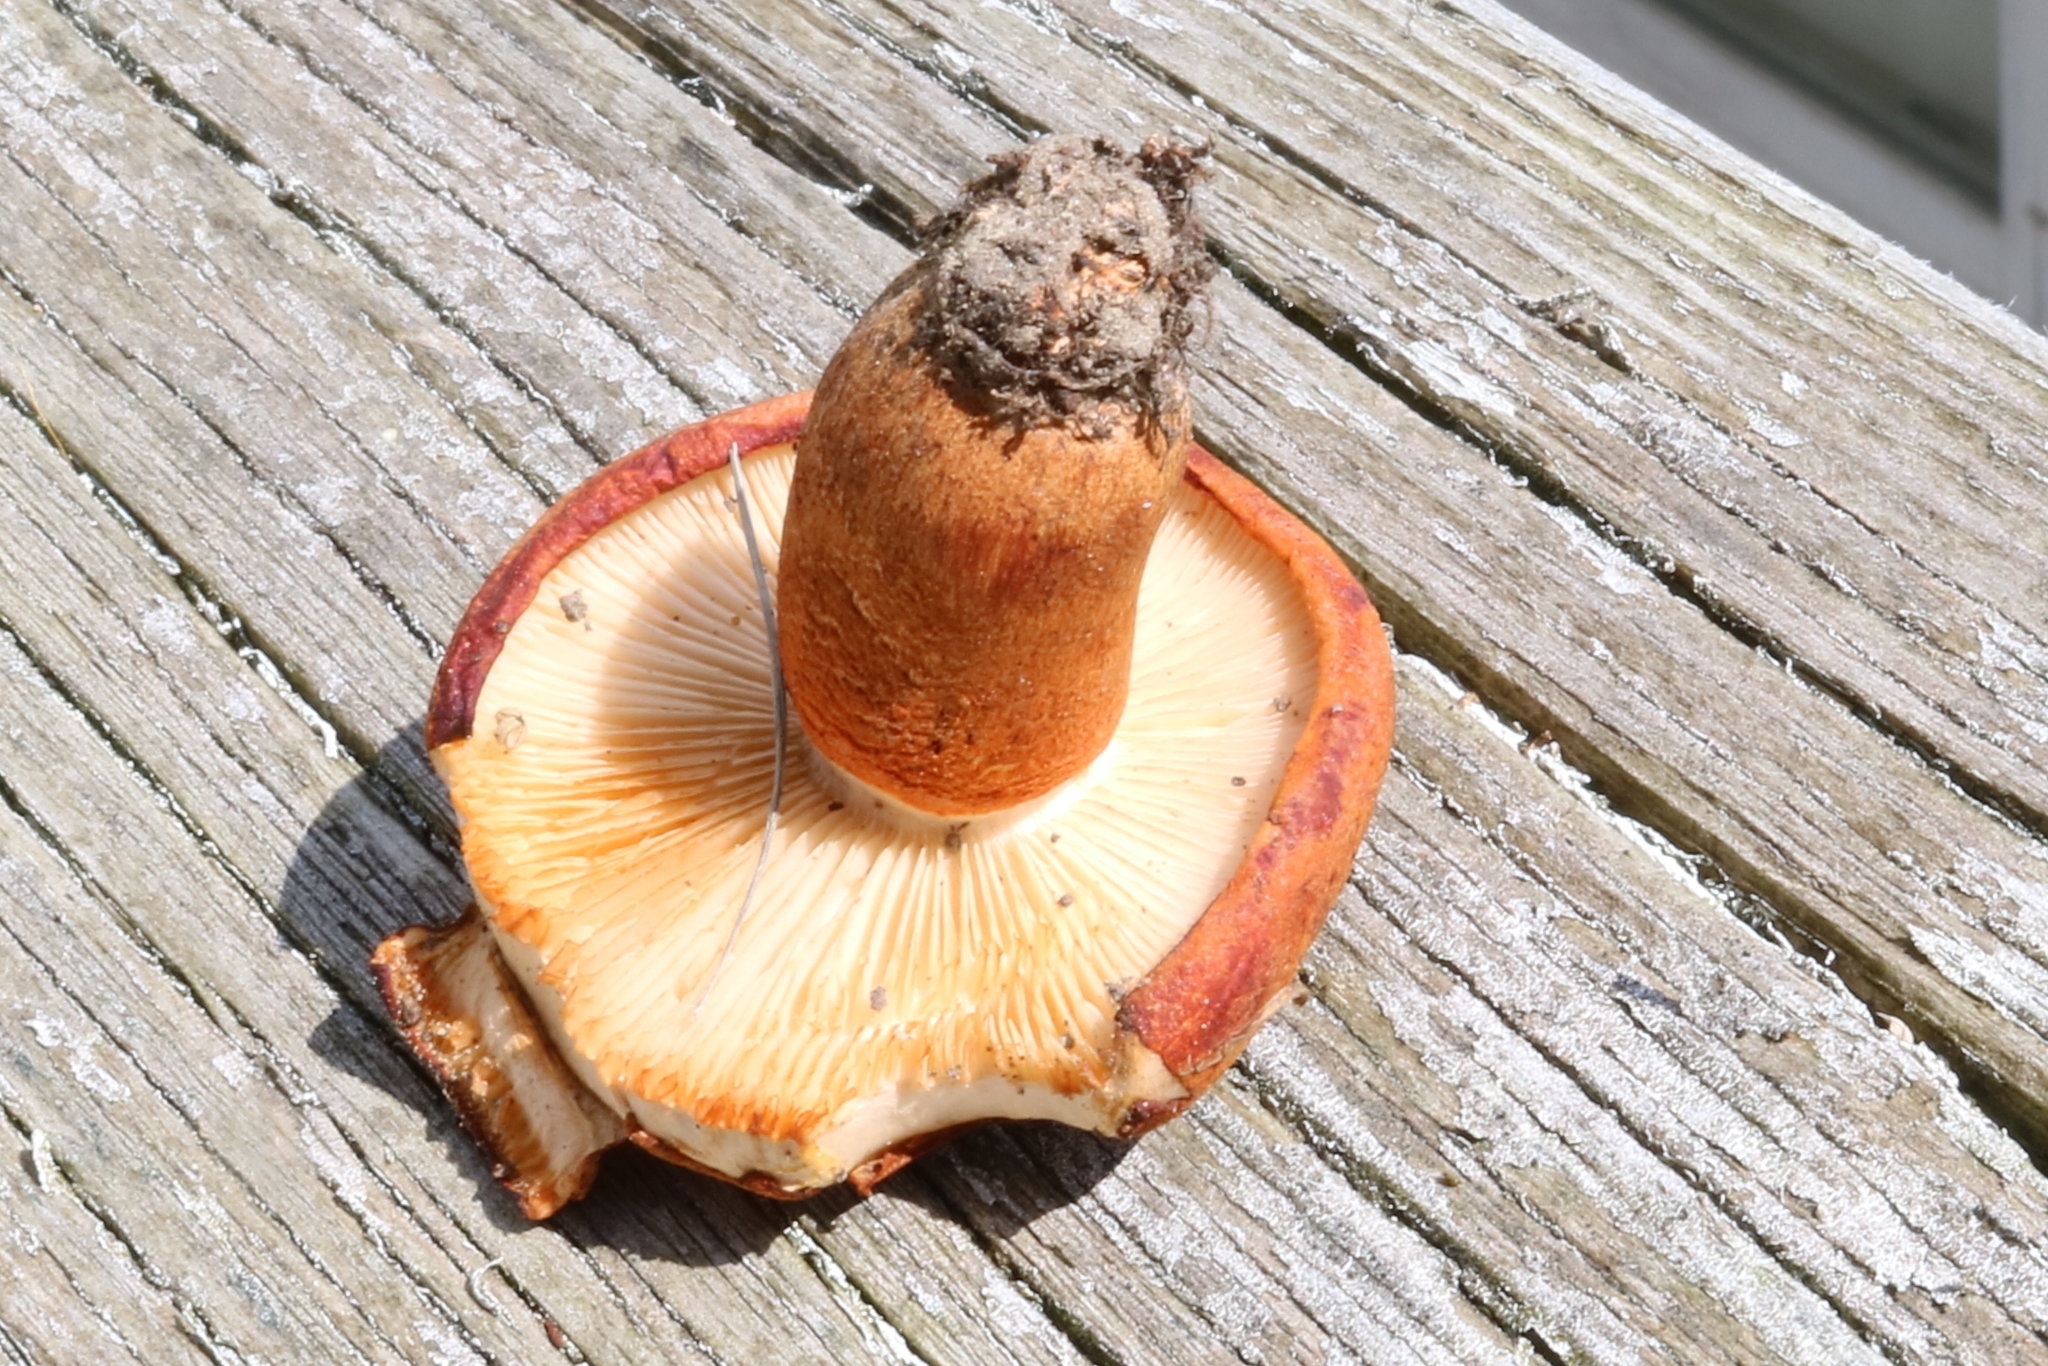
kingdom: Fungi
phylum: Basidiomycota
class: Agaricomycetes
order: Agaricales
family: Tricholomataceae
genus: Tricholoma
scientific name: Tricholoma aurantium
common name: Orange knight
